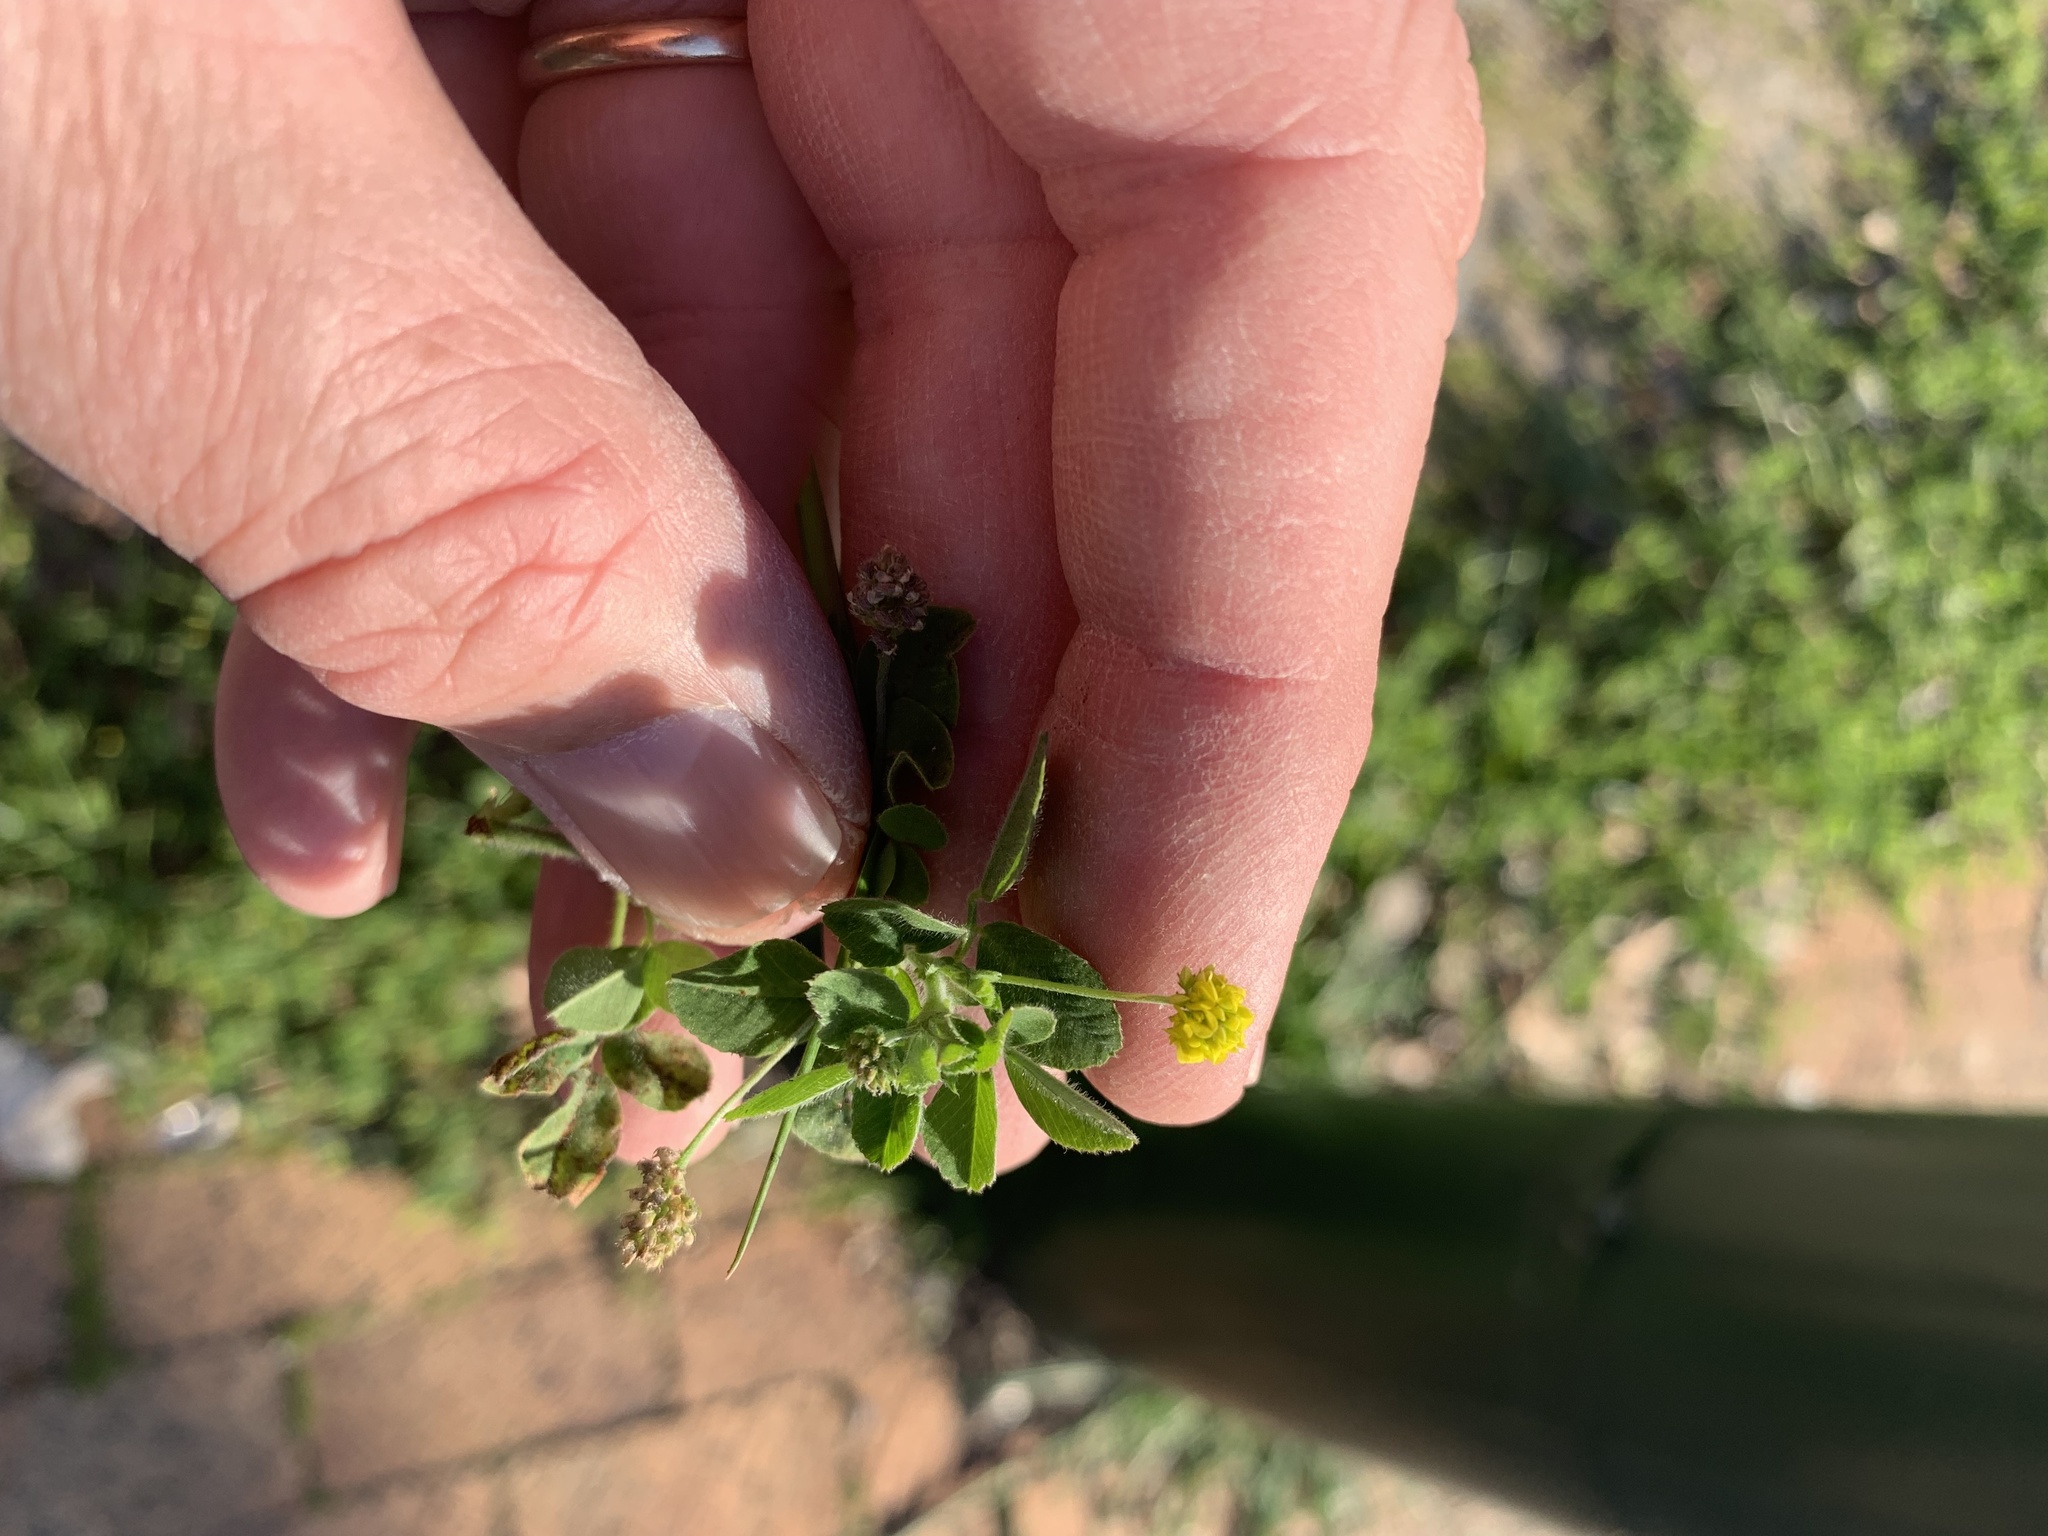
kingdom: Plantae
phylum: Tracheophyta
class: Magnoliopsida
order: Fabales
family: Fabaceae
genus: Medicago
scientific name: Medicago lupulina
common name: Black medick
